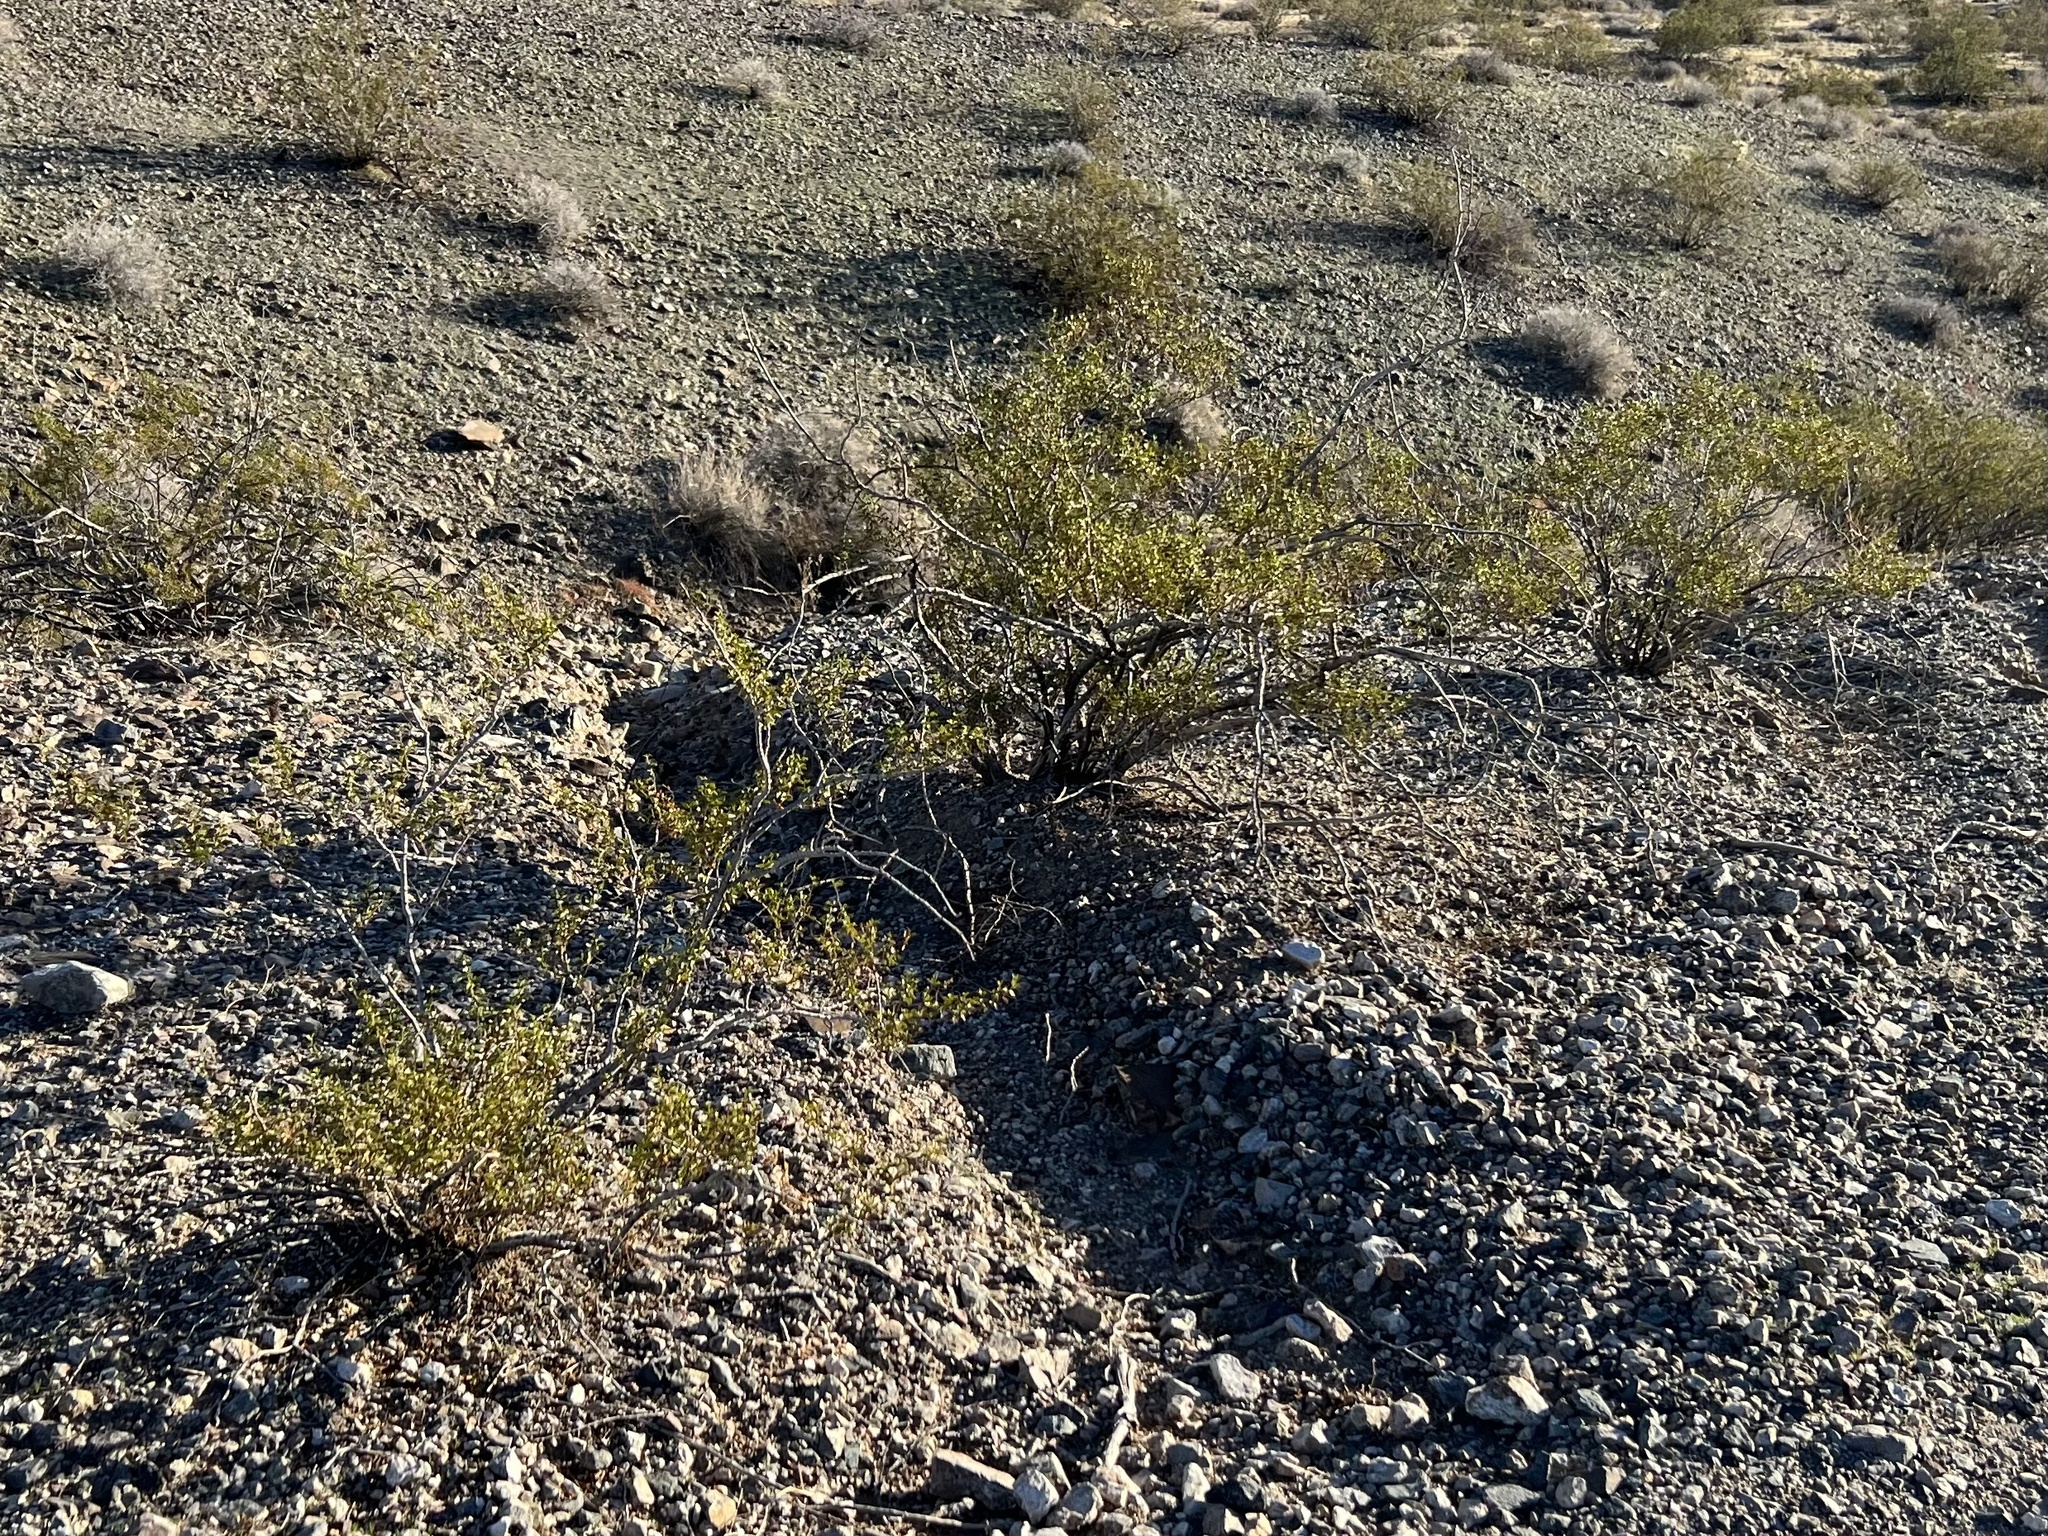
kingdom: Plantae
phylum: Tracheophyta
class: Magnoliopsida
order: Zygophyllales
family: Zygophyllaceae
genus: Larrea
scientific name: Larrea tridentata
